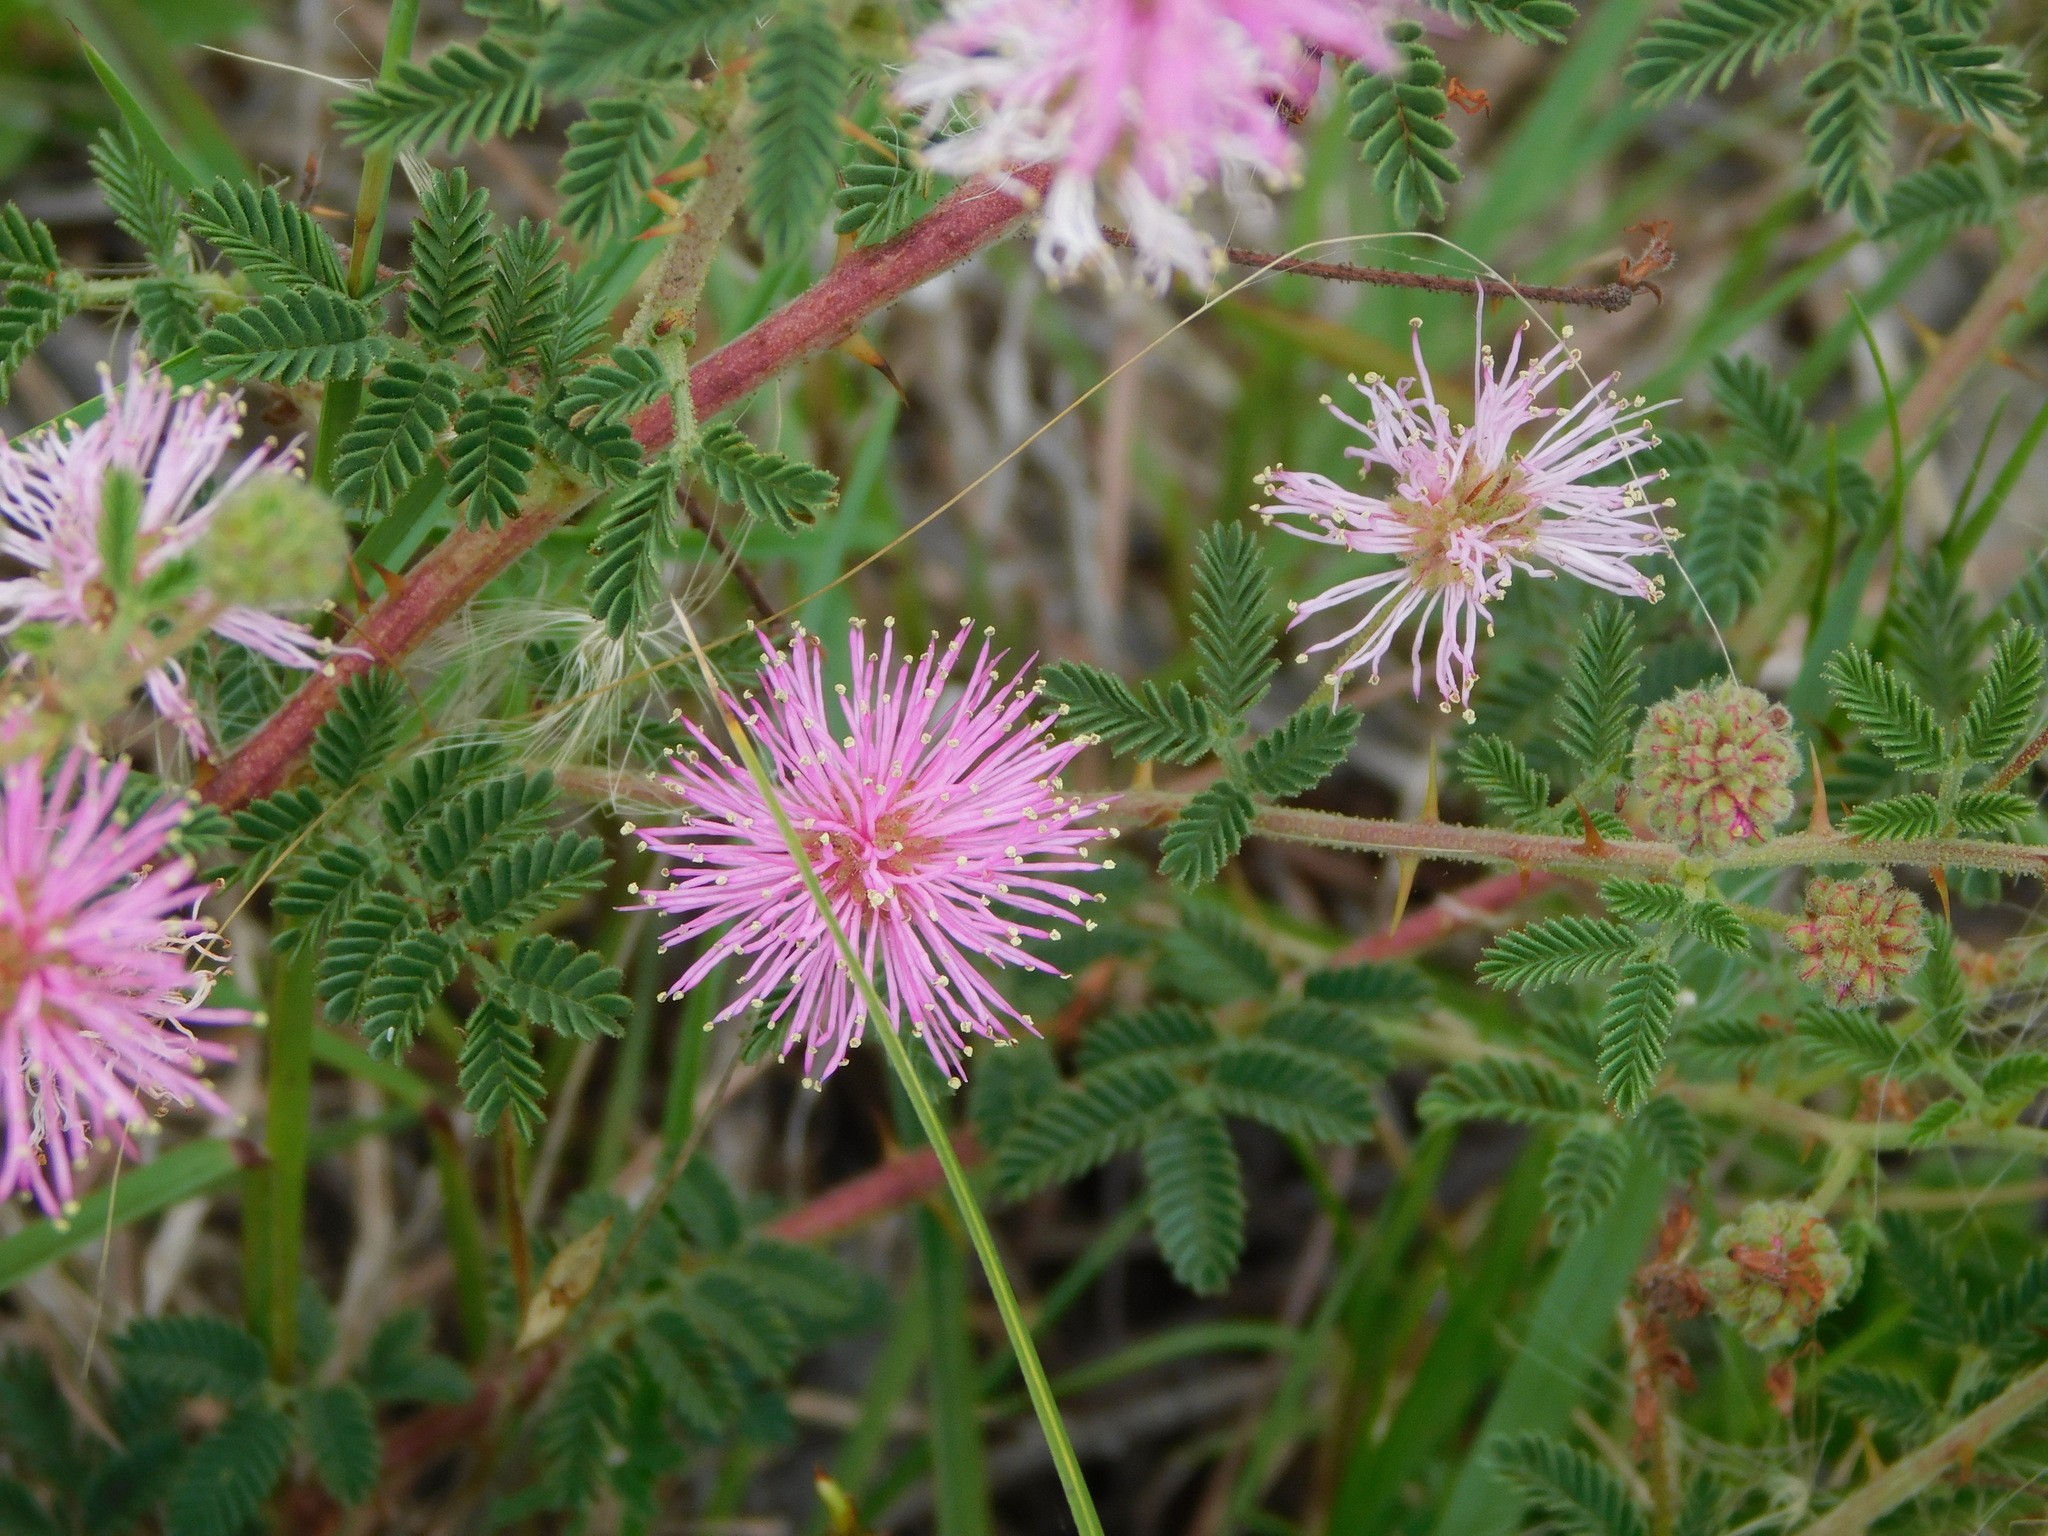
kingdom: Plantae
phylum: Tracheophyta
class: Magnoliopsida
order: Fabales
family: Fabaceae
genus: Mimosa
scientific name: Mimosa cruenta
